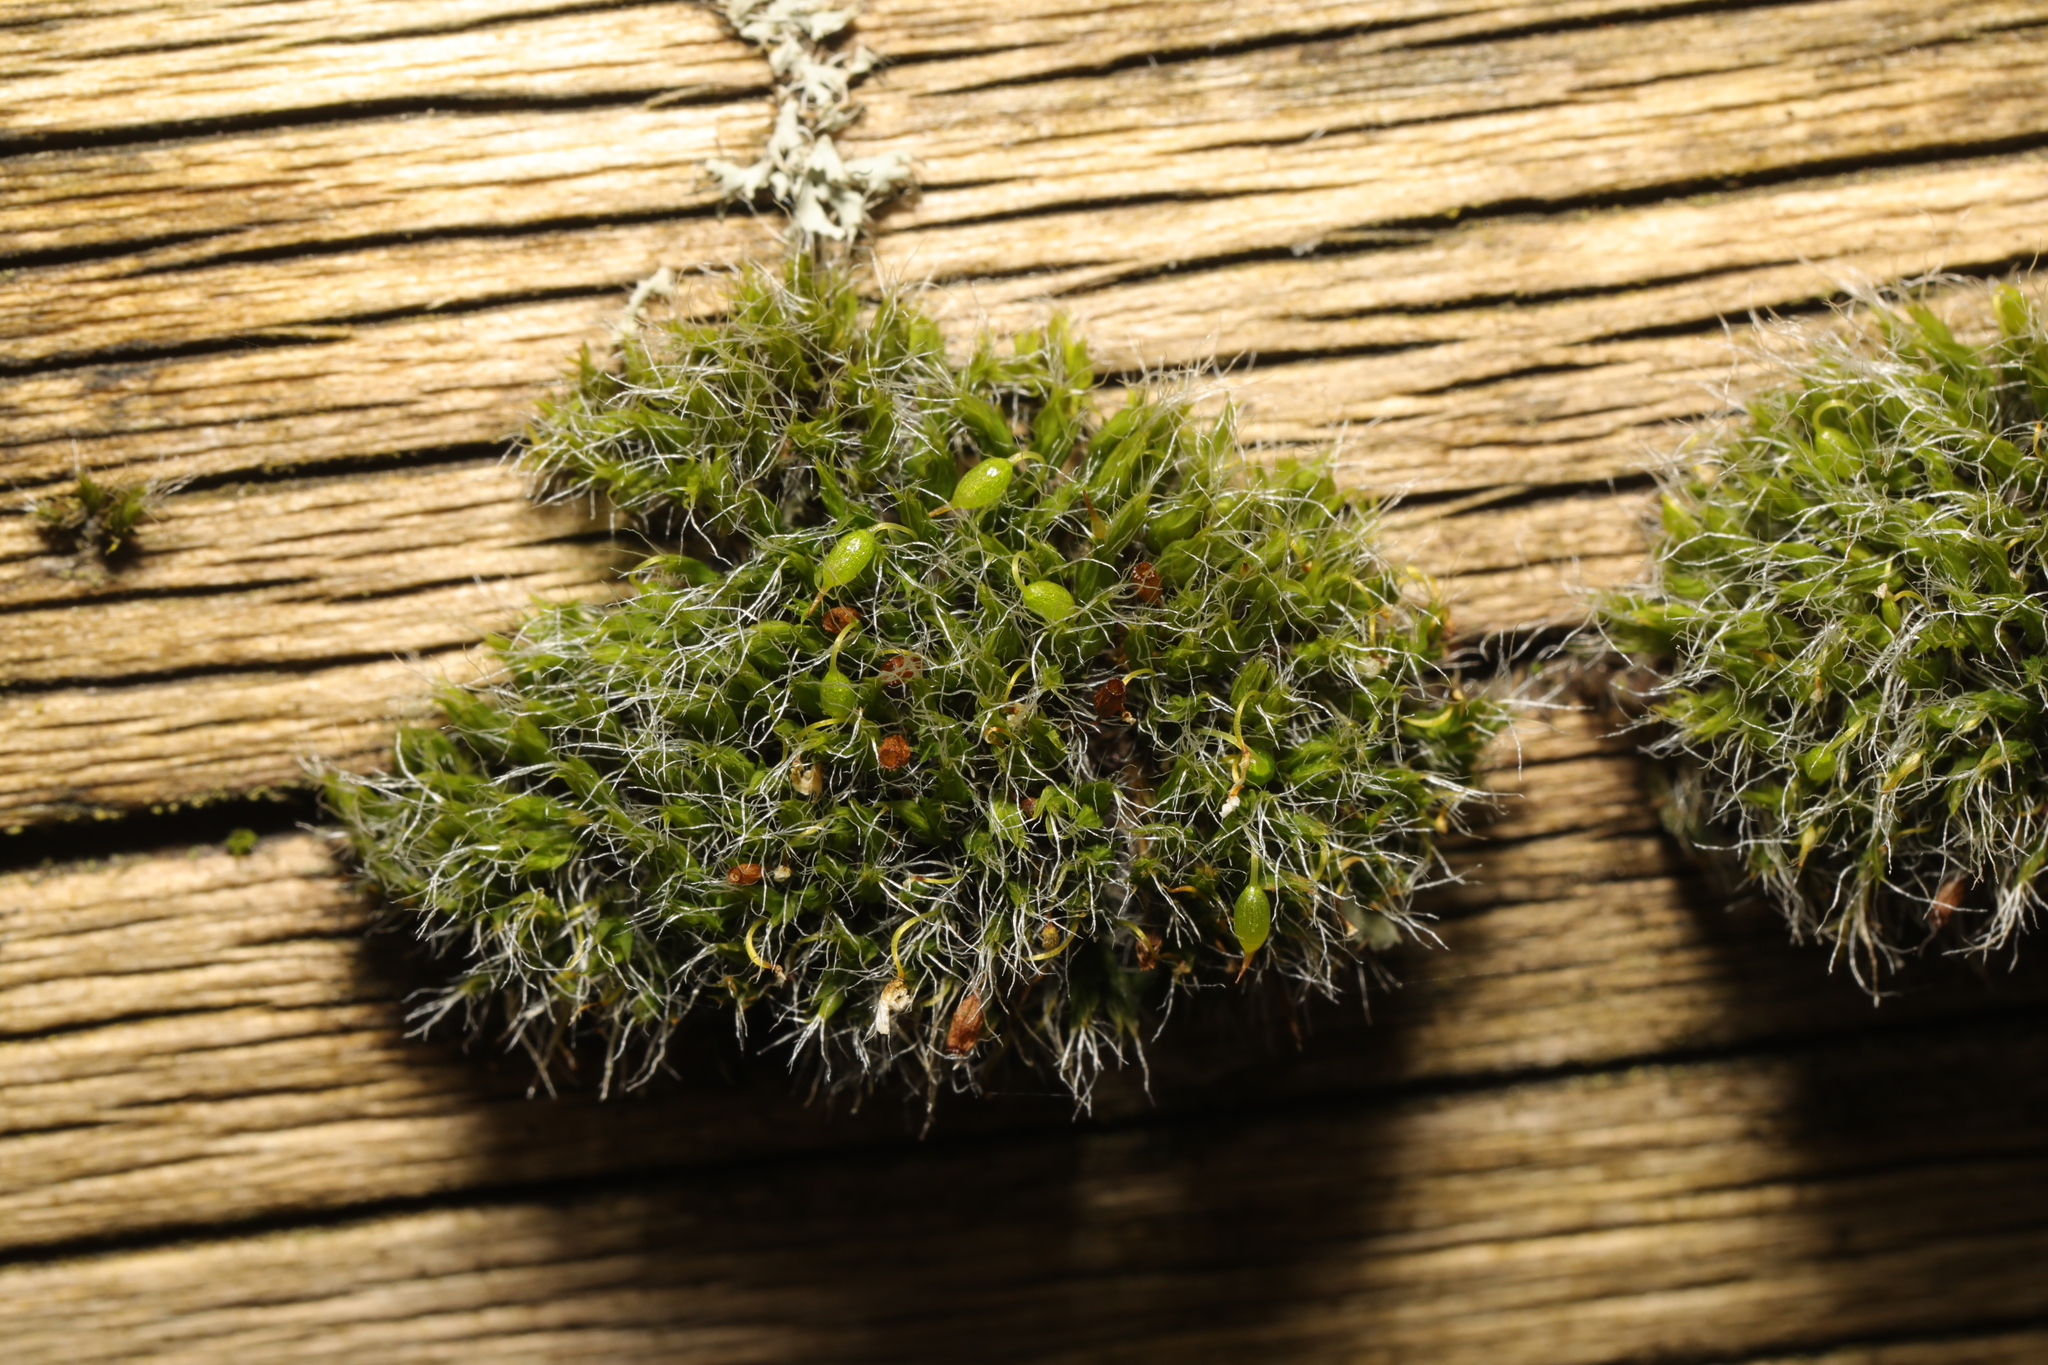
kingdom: Plantae
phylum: Bryophyta
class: Bryopsida
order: Grimmiales
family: Grimmiaceae
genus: Grimmia
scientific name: Grimmia pulvinata
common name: Grey-cushioned grimmia
